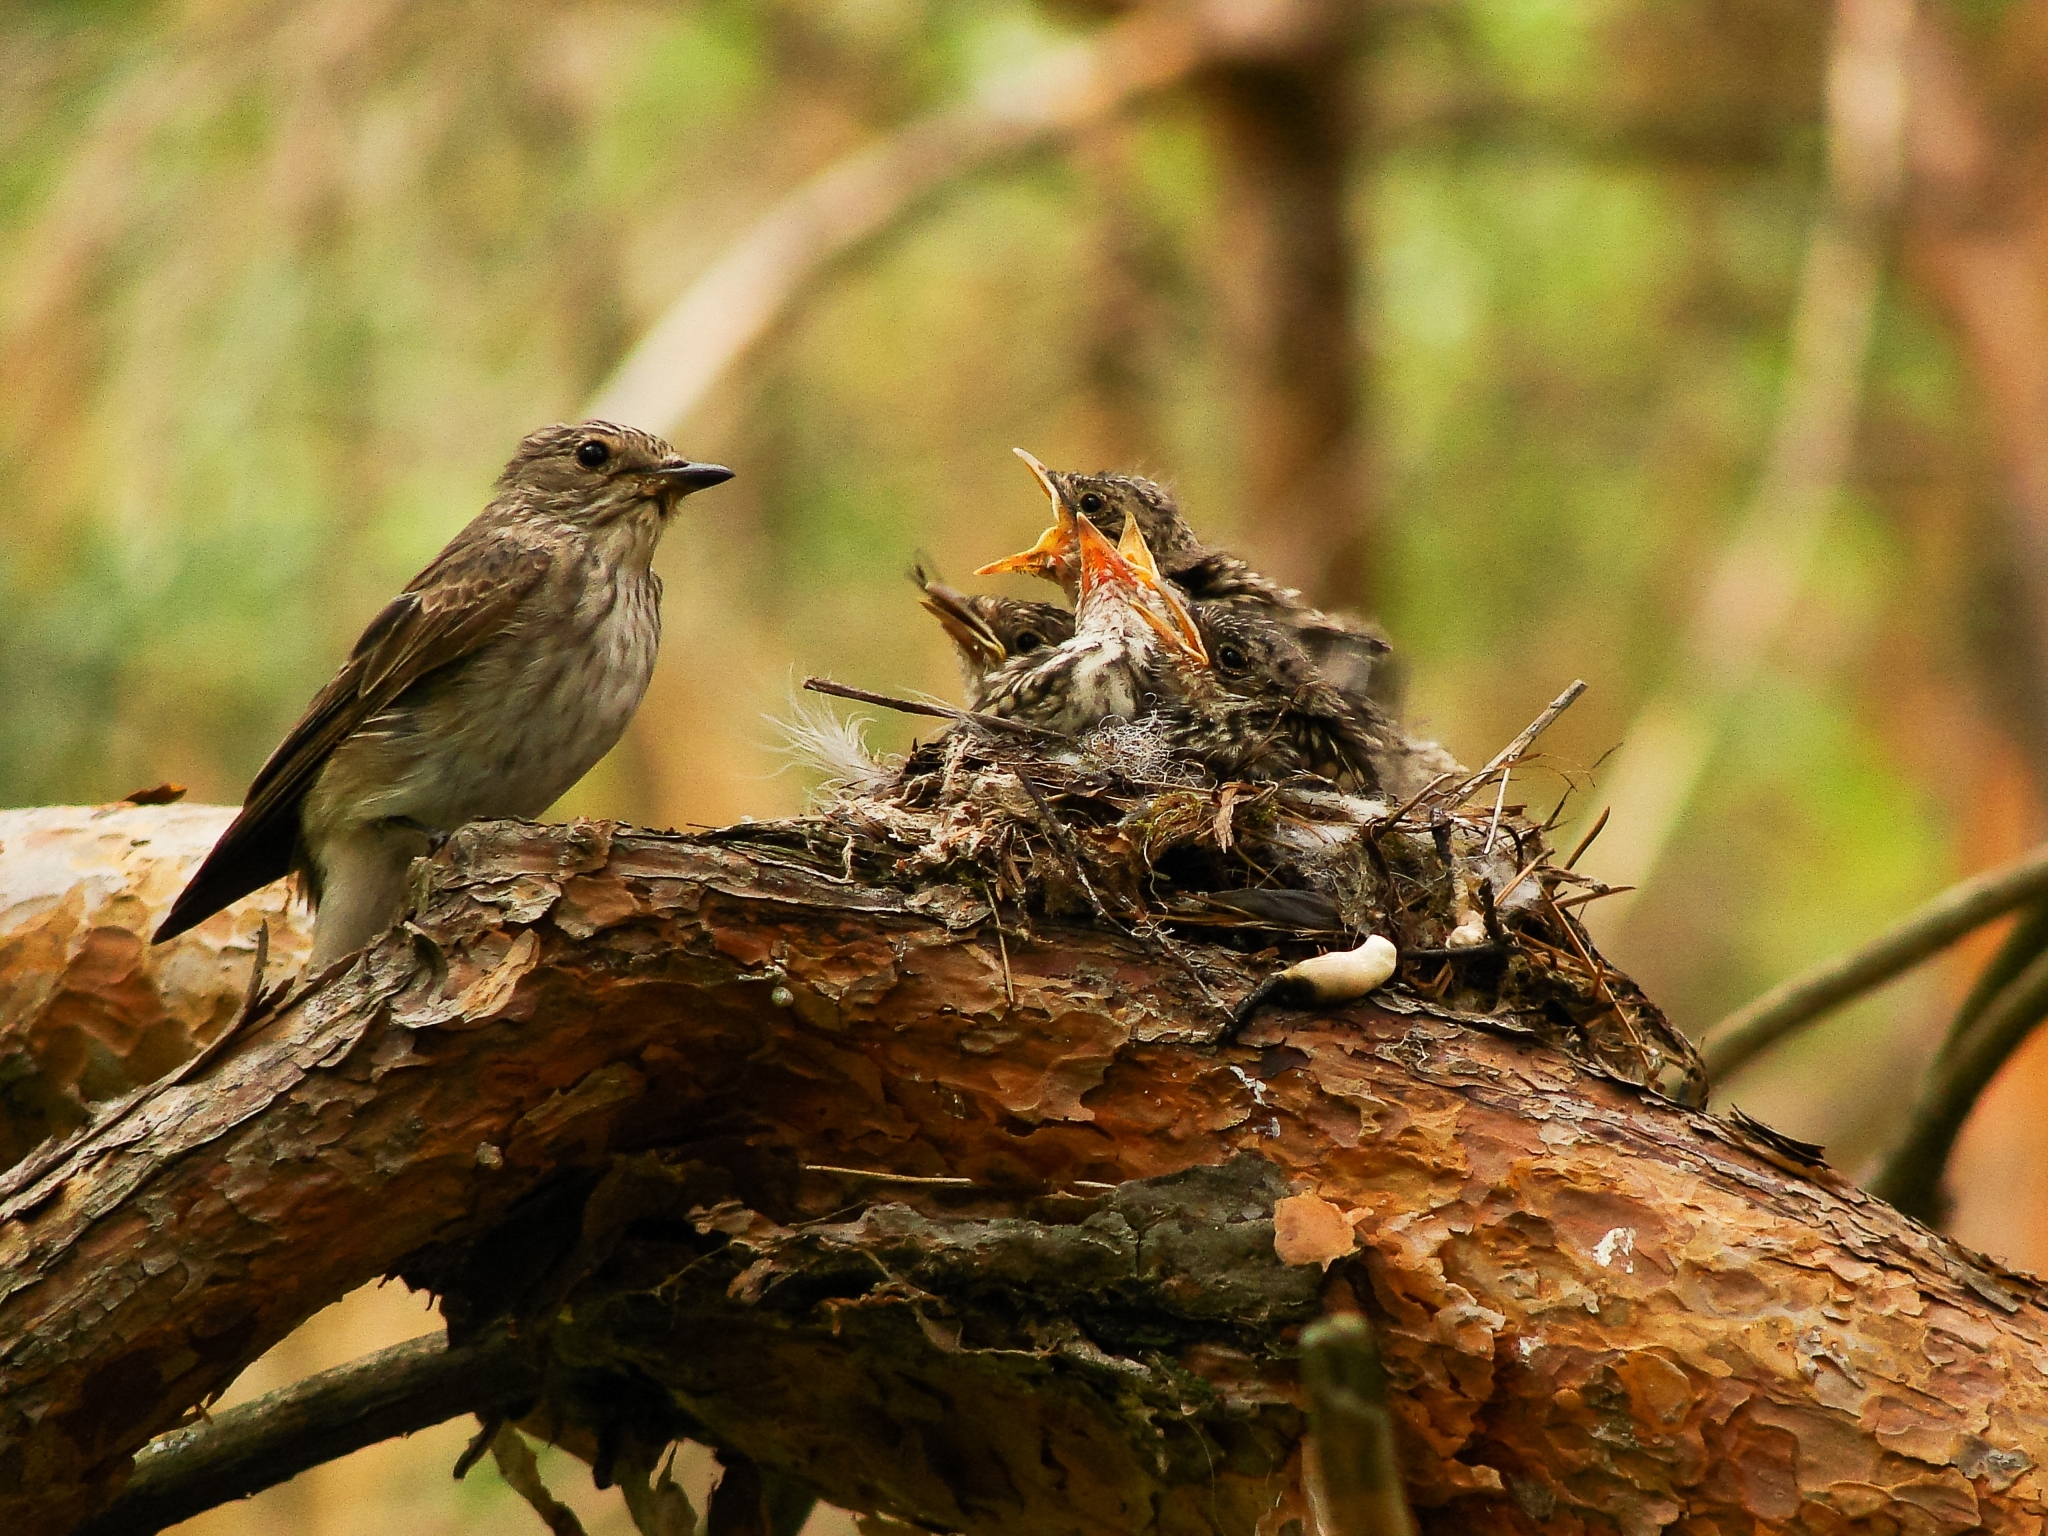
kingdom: Animalia
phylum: Chordata
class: Aves
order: Passeriformes
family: Muscicapidae
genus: Muscicapa
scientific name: Muscicapa striata
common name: Spotted flycatcher
